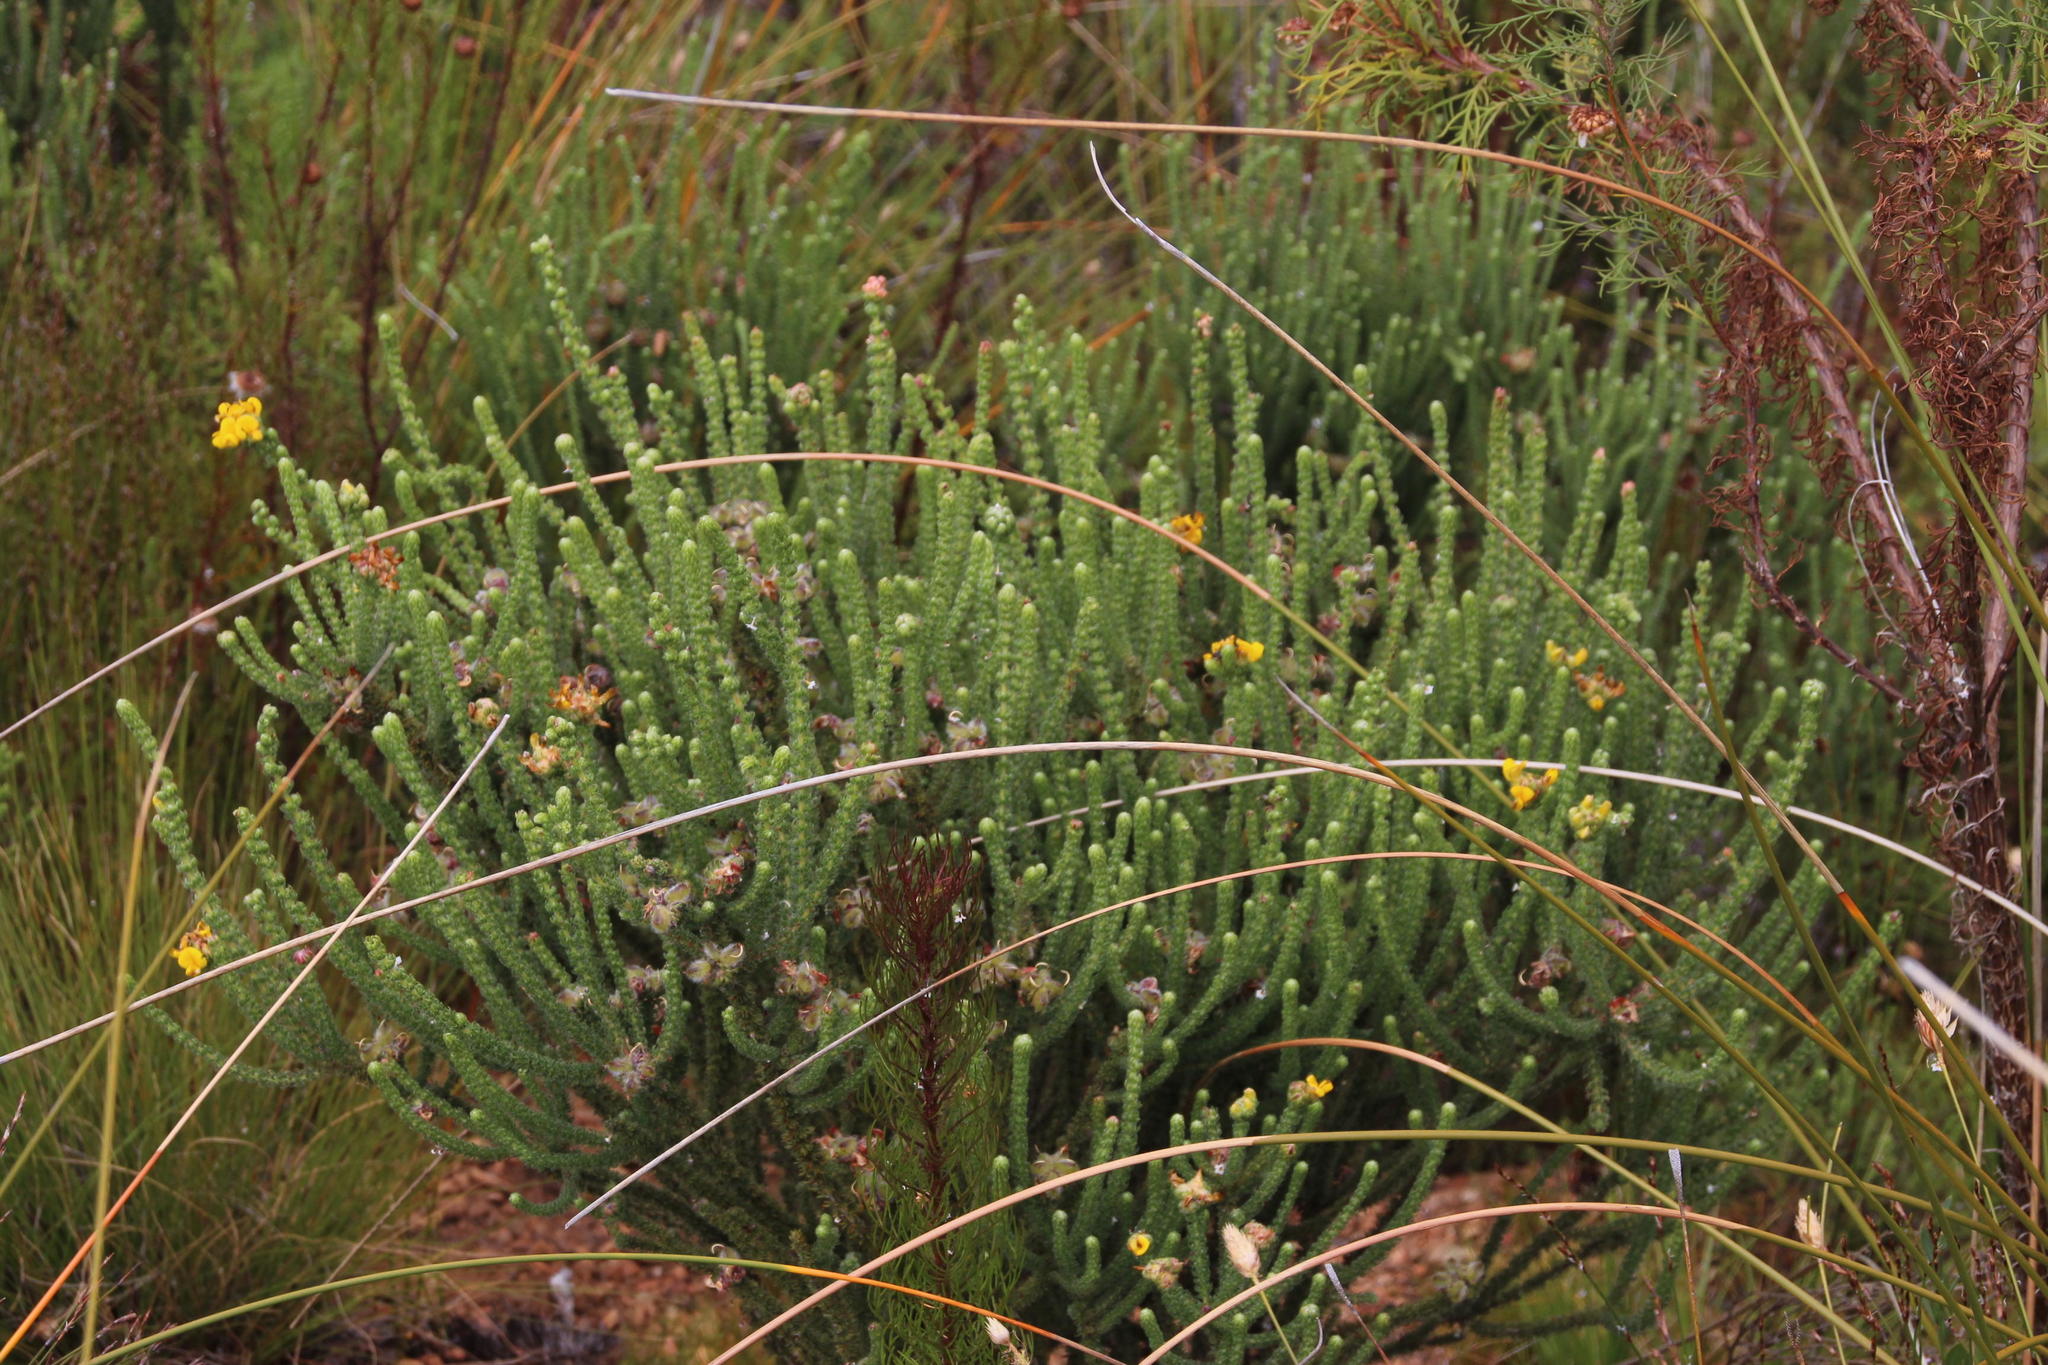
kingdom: Plantae
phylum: Tracheophyta
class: Magnoliopsida
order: Fabales
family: Fabaceae
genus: Aspalathus
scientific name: Aspalathus triquetra
